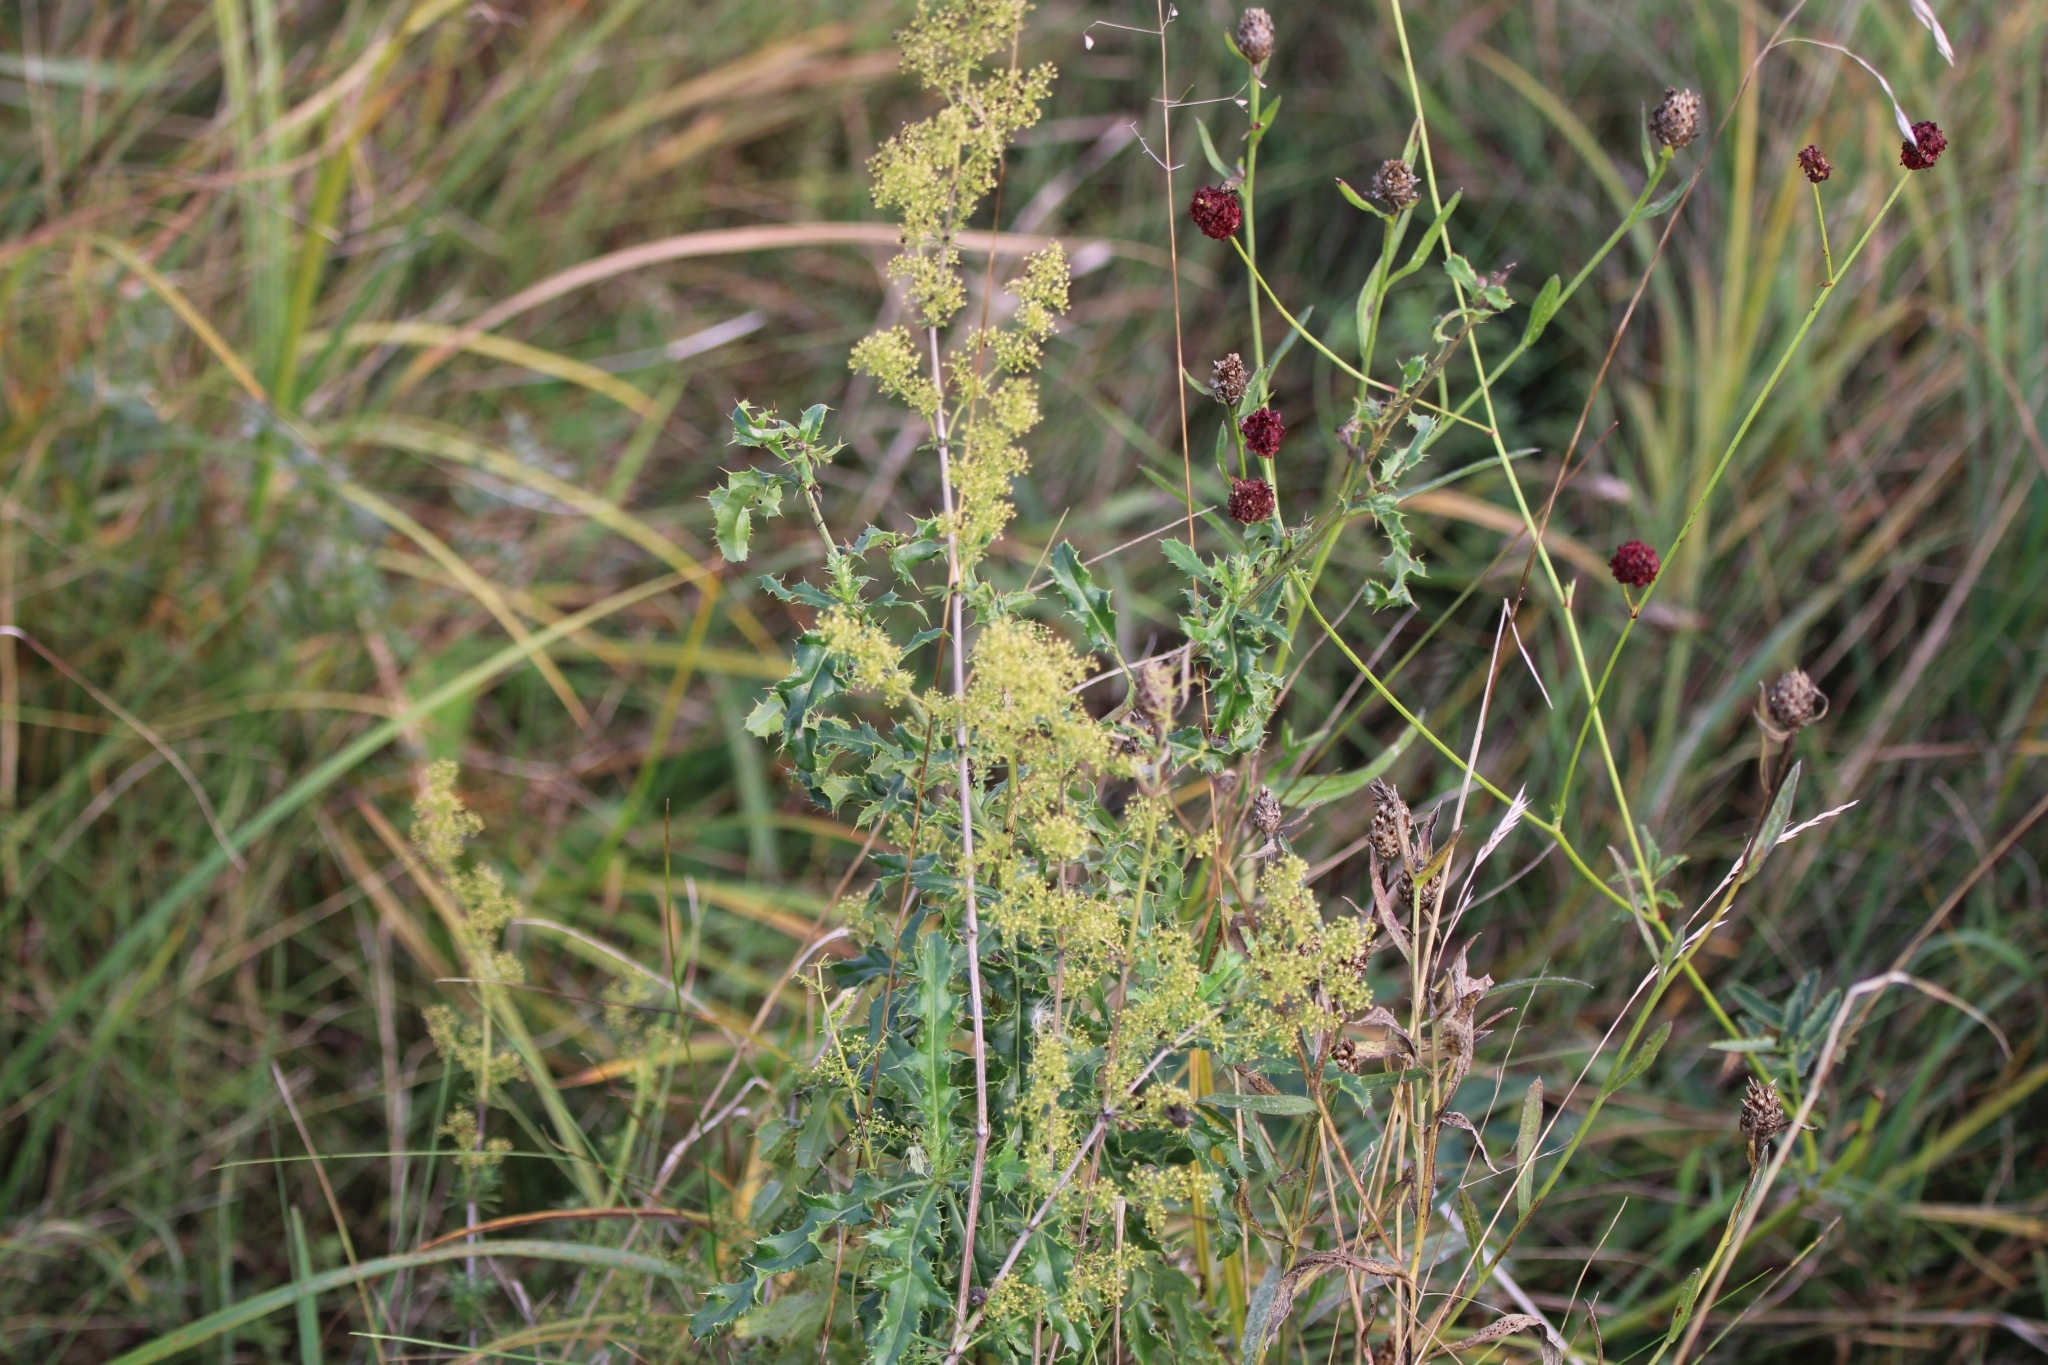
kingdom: Plantae
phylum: Tracheophyta
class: Magnoliopsida
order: Asterales
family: Asteraceae
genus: Cirsium
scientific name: Cirsium arvense
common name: Creeping thistle
